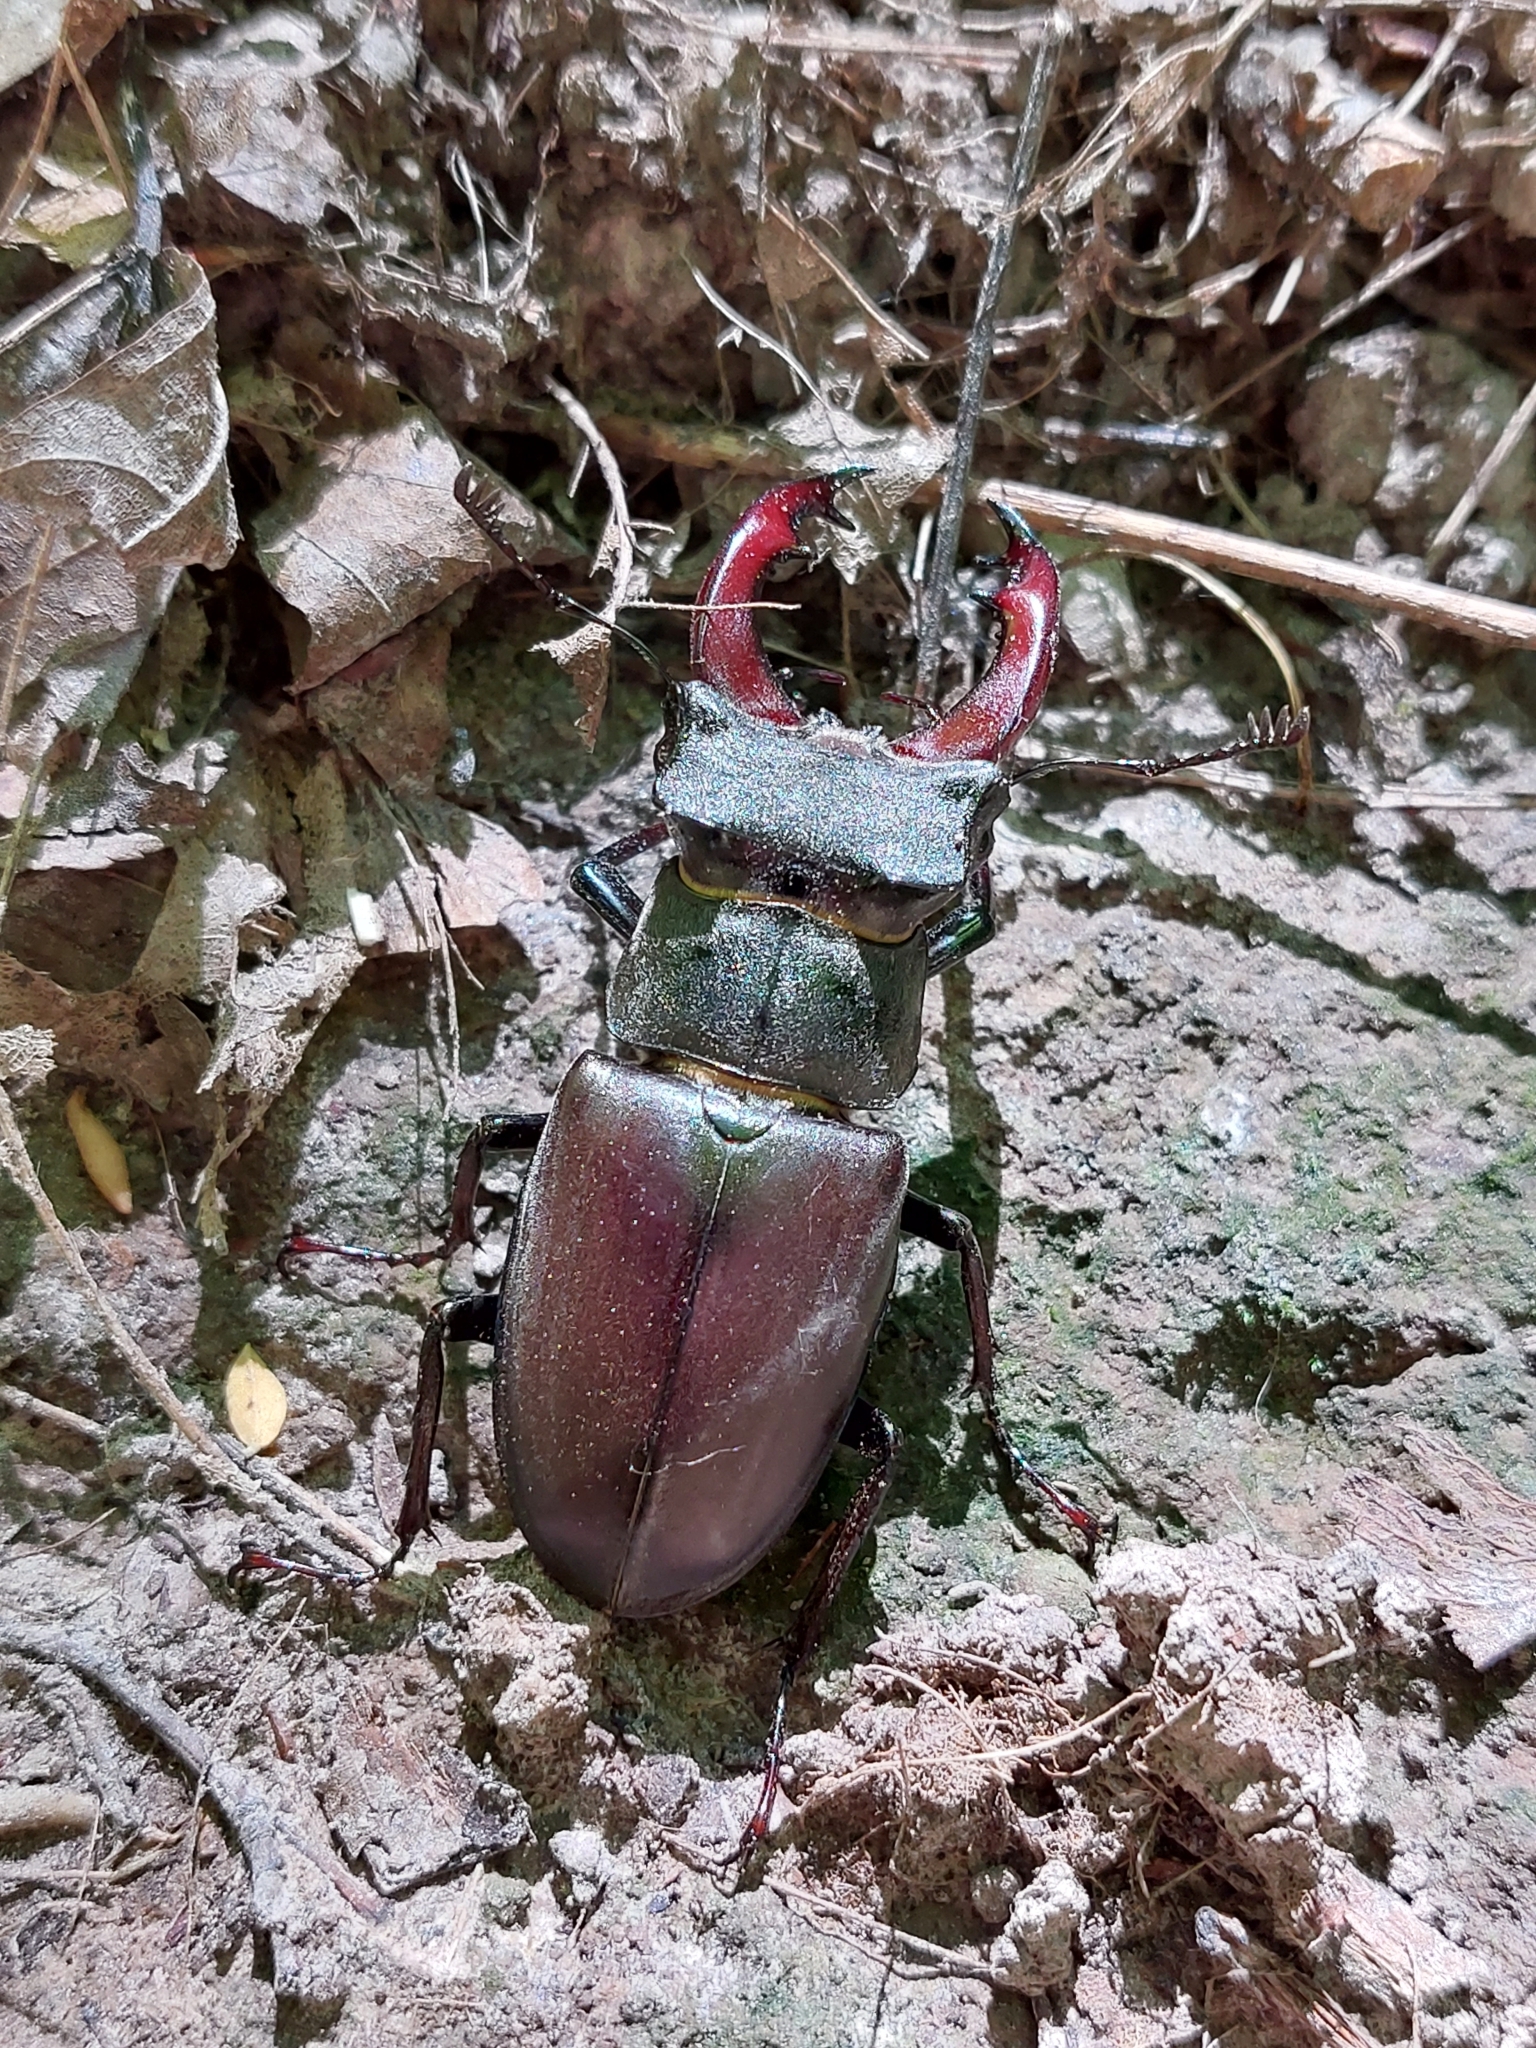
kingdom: Animalia
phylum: Arthropoda
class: Insecta
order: Coleoptera
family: Lucanidae
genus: Lucanus
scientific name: Lucanus cervus
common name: Stag beetle
